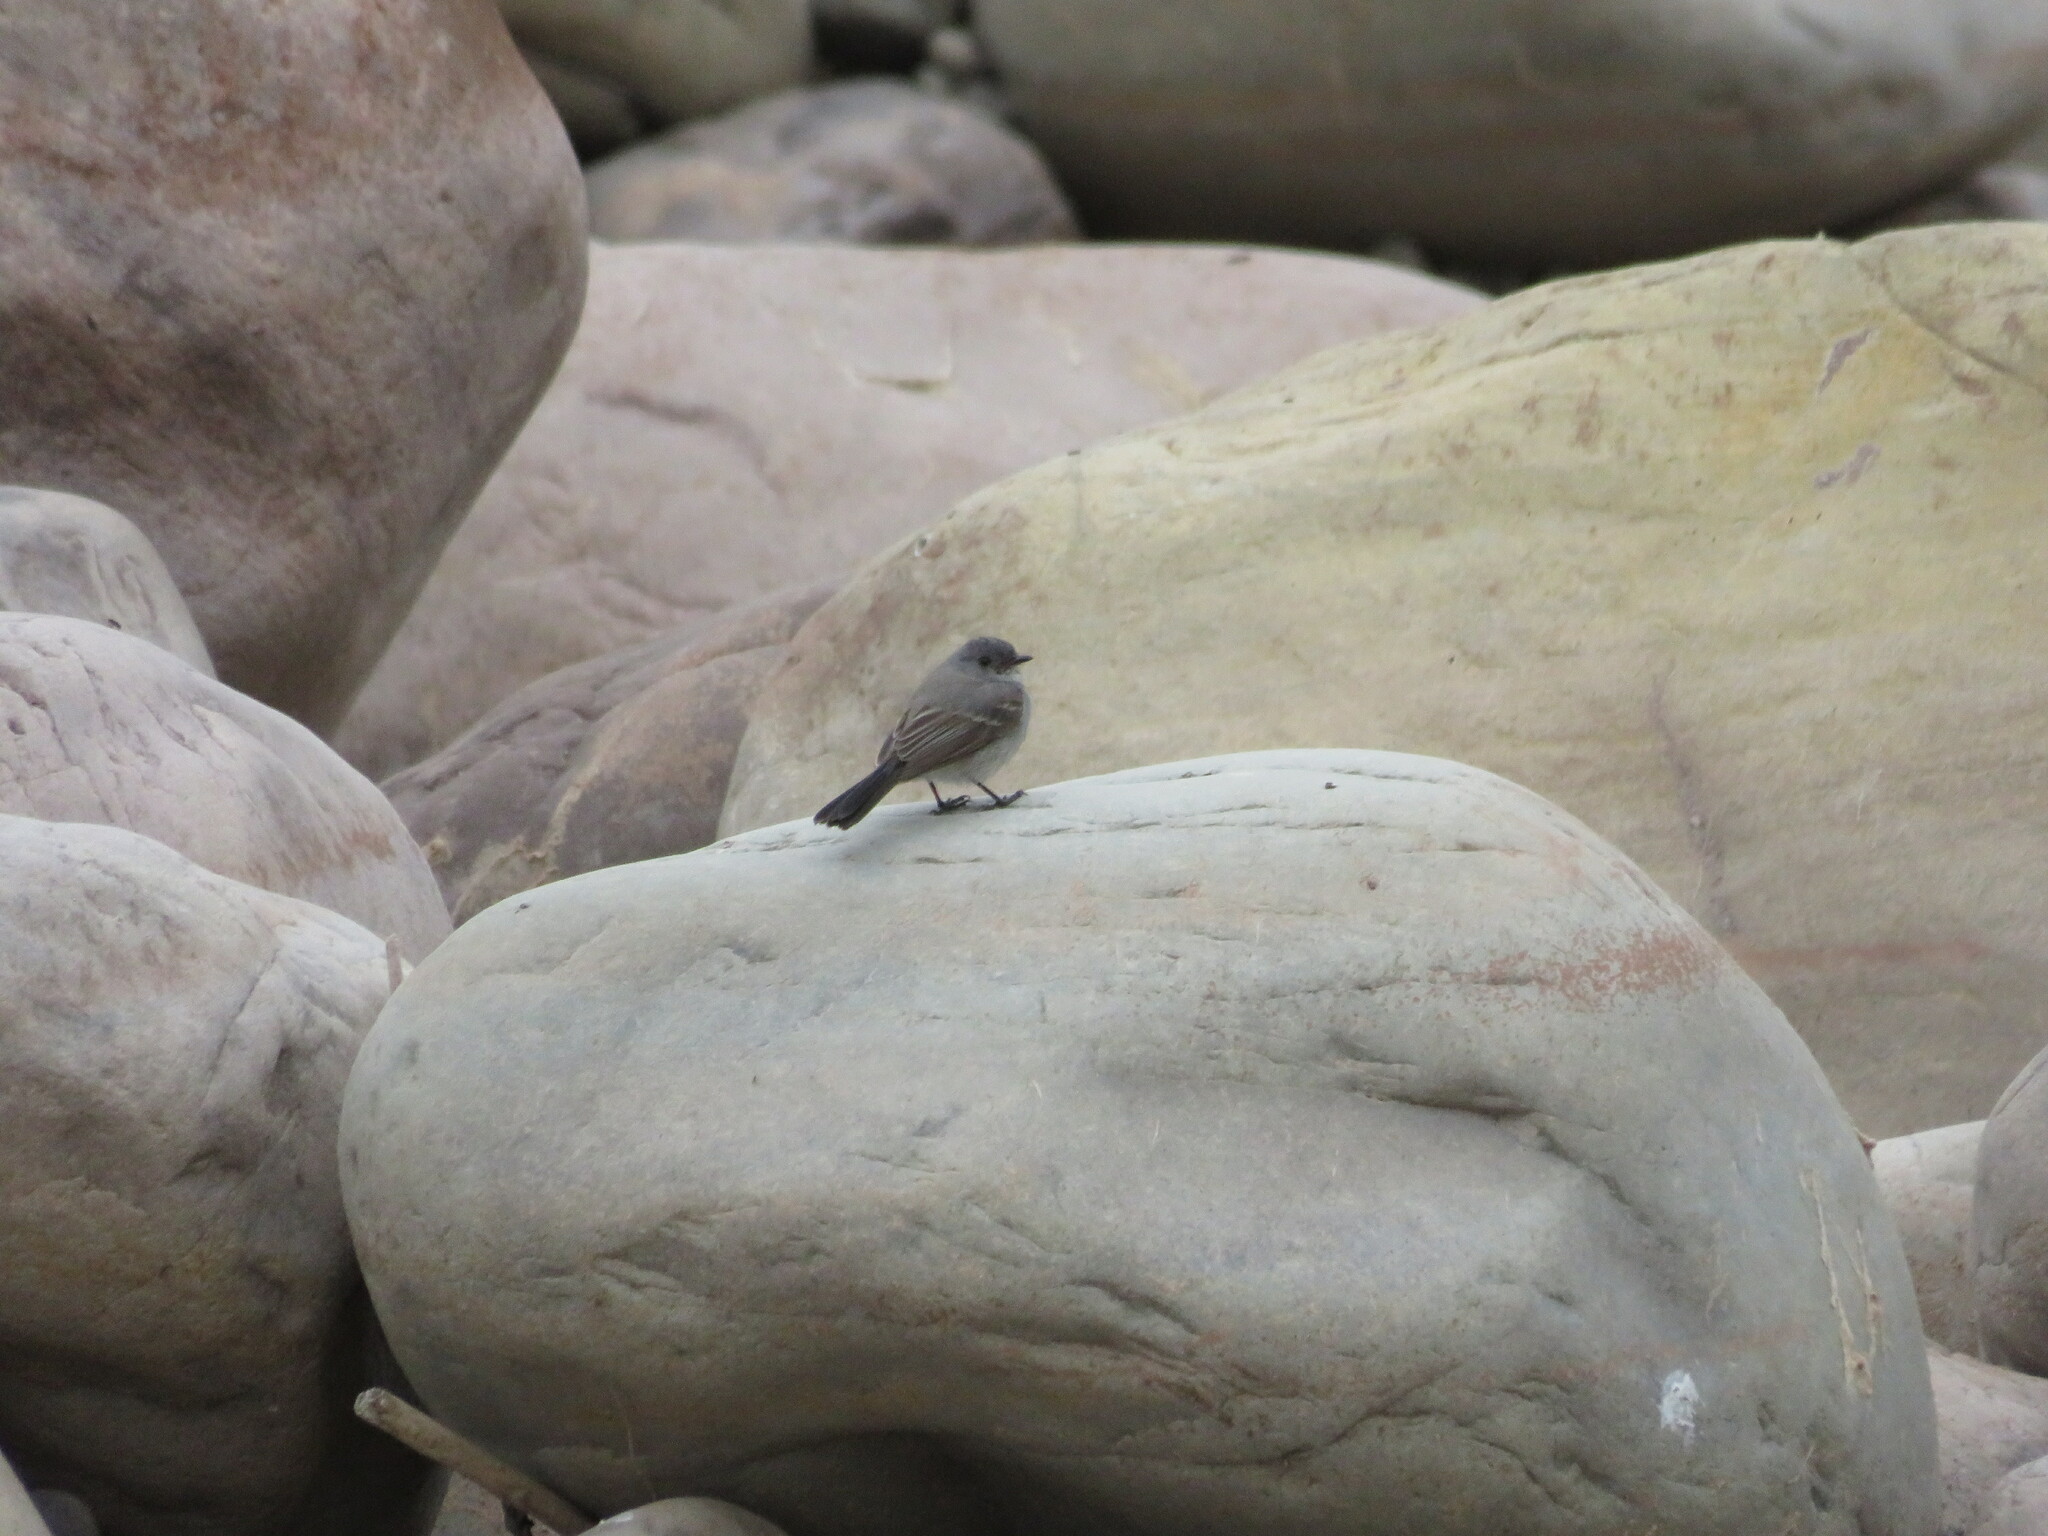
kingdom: Animalia
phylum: Chordata
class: Aves
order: Passeriformes
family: Tyrannidae
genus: Serpophaga
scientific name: Serpophaga nigricans
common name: Sooty tyrannulet
